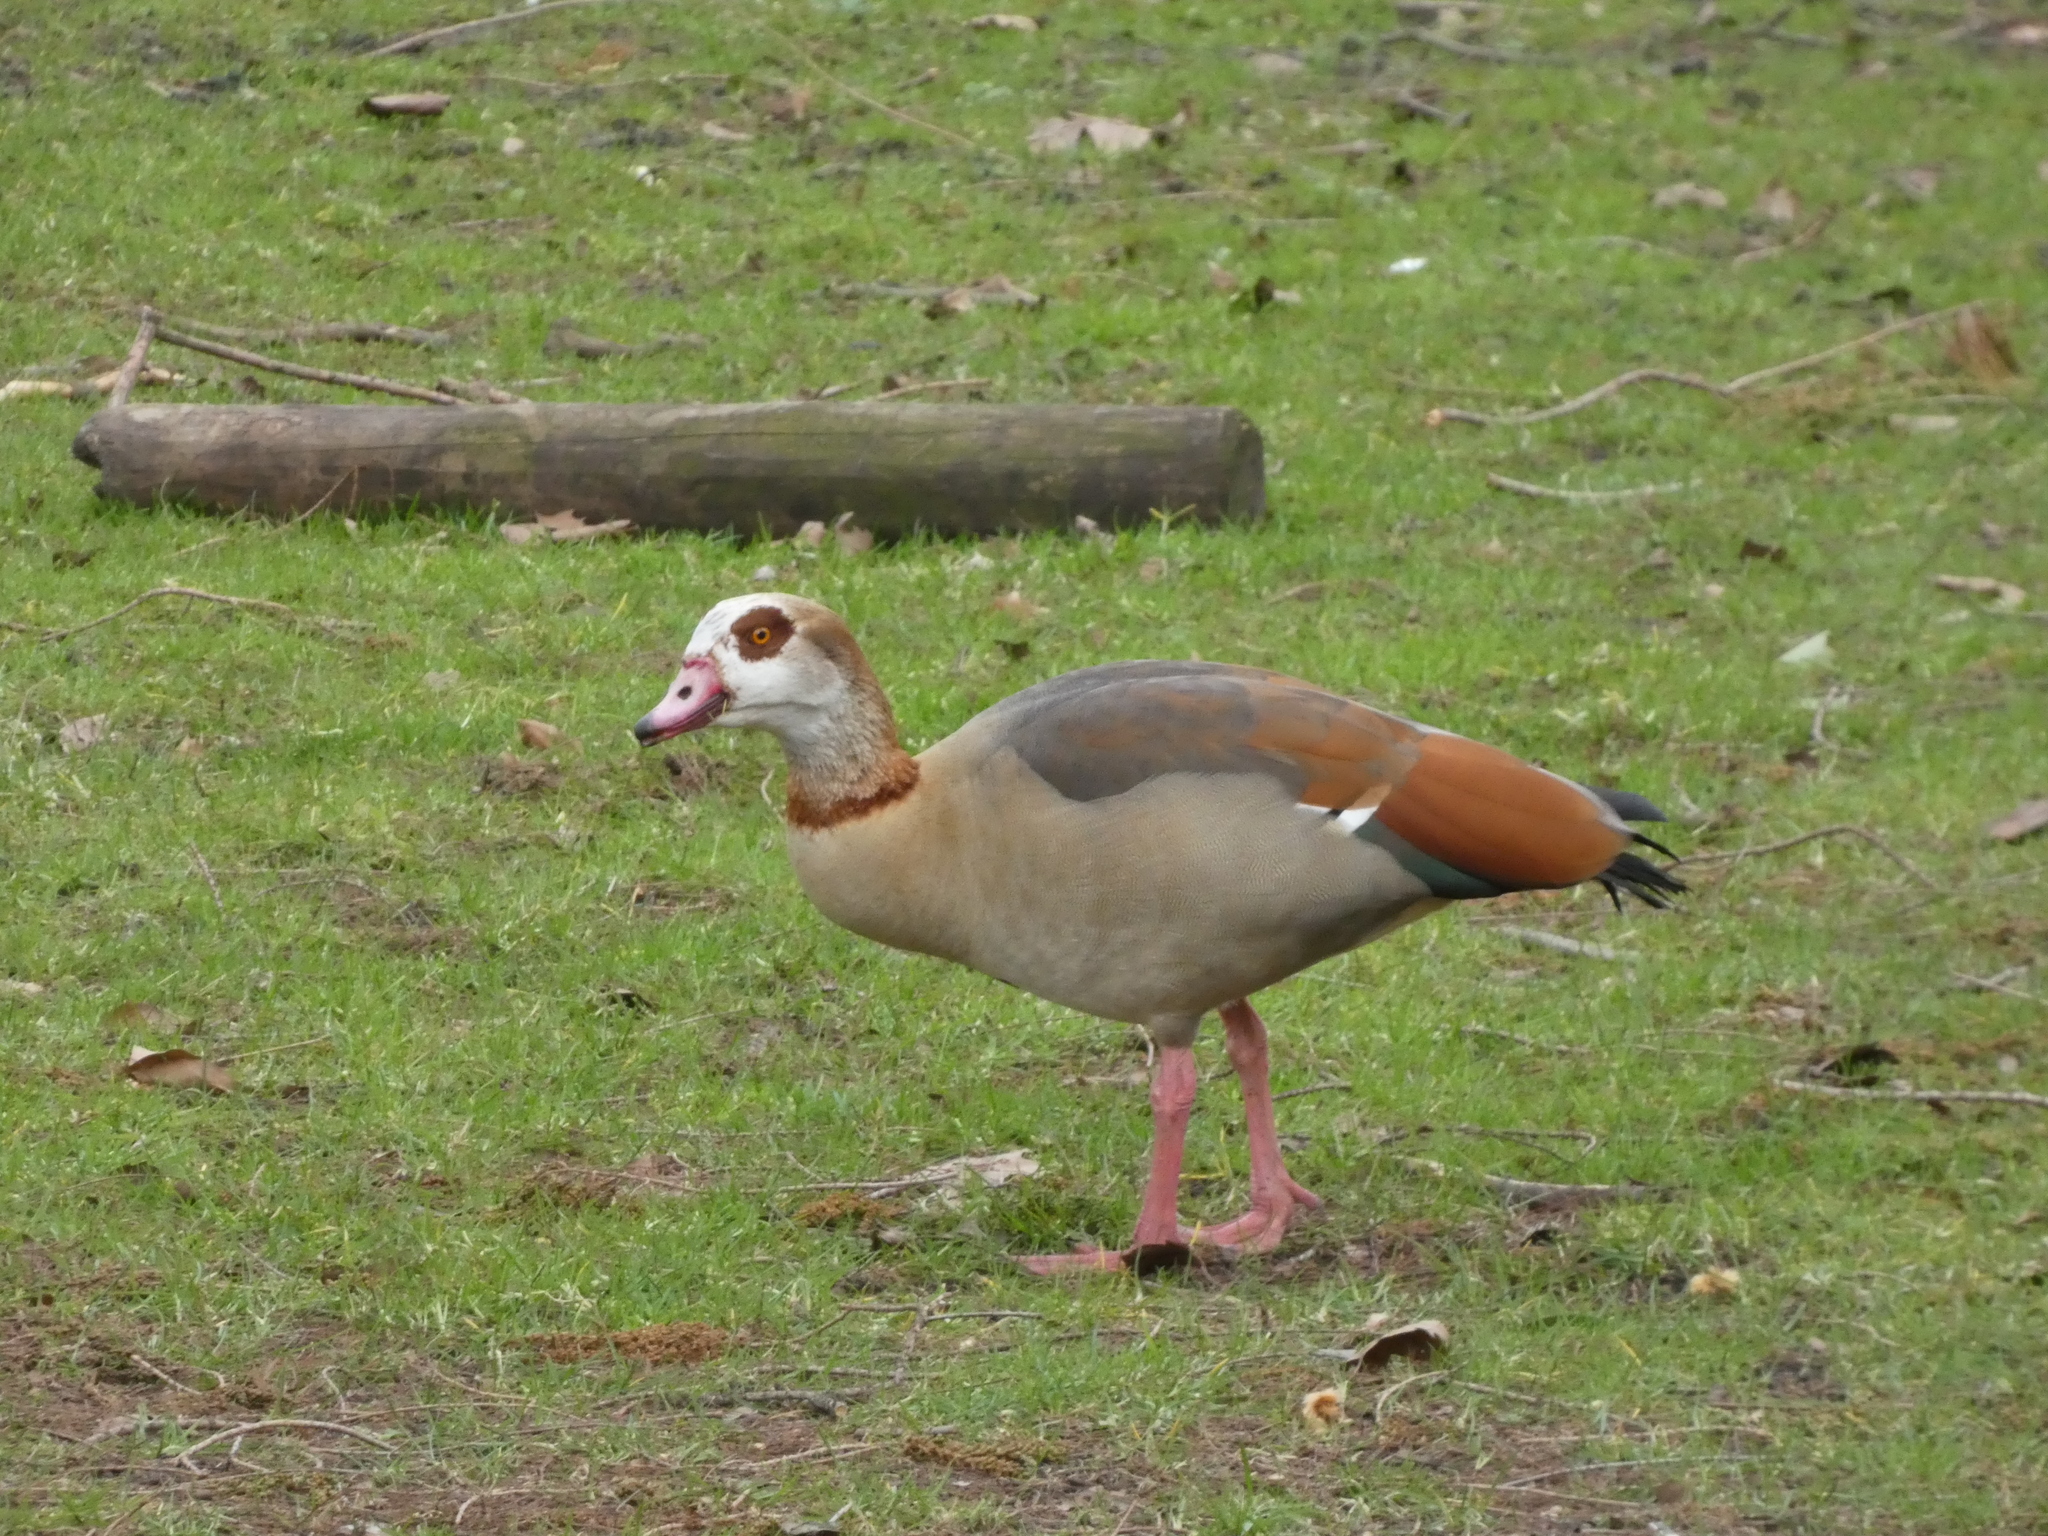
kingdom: Animalia
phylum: Chordata
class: Aves
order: Anseriformes
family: Anatidae
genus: Alopochen
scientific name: Alopochen aegyptiaca
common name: Egyptian goose
